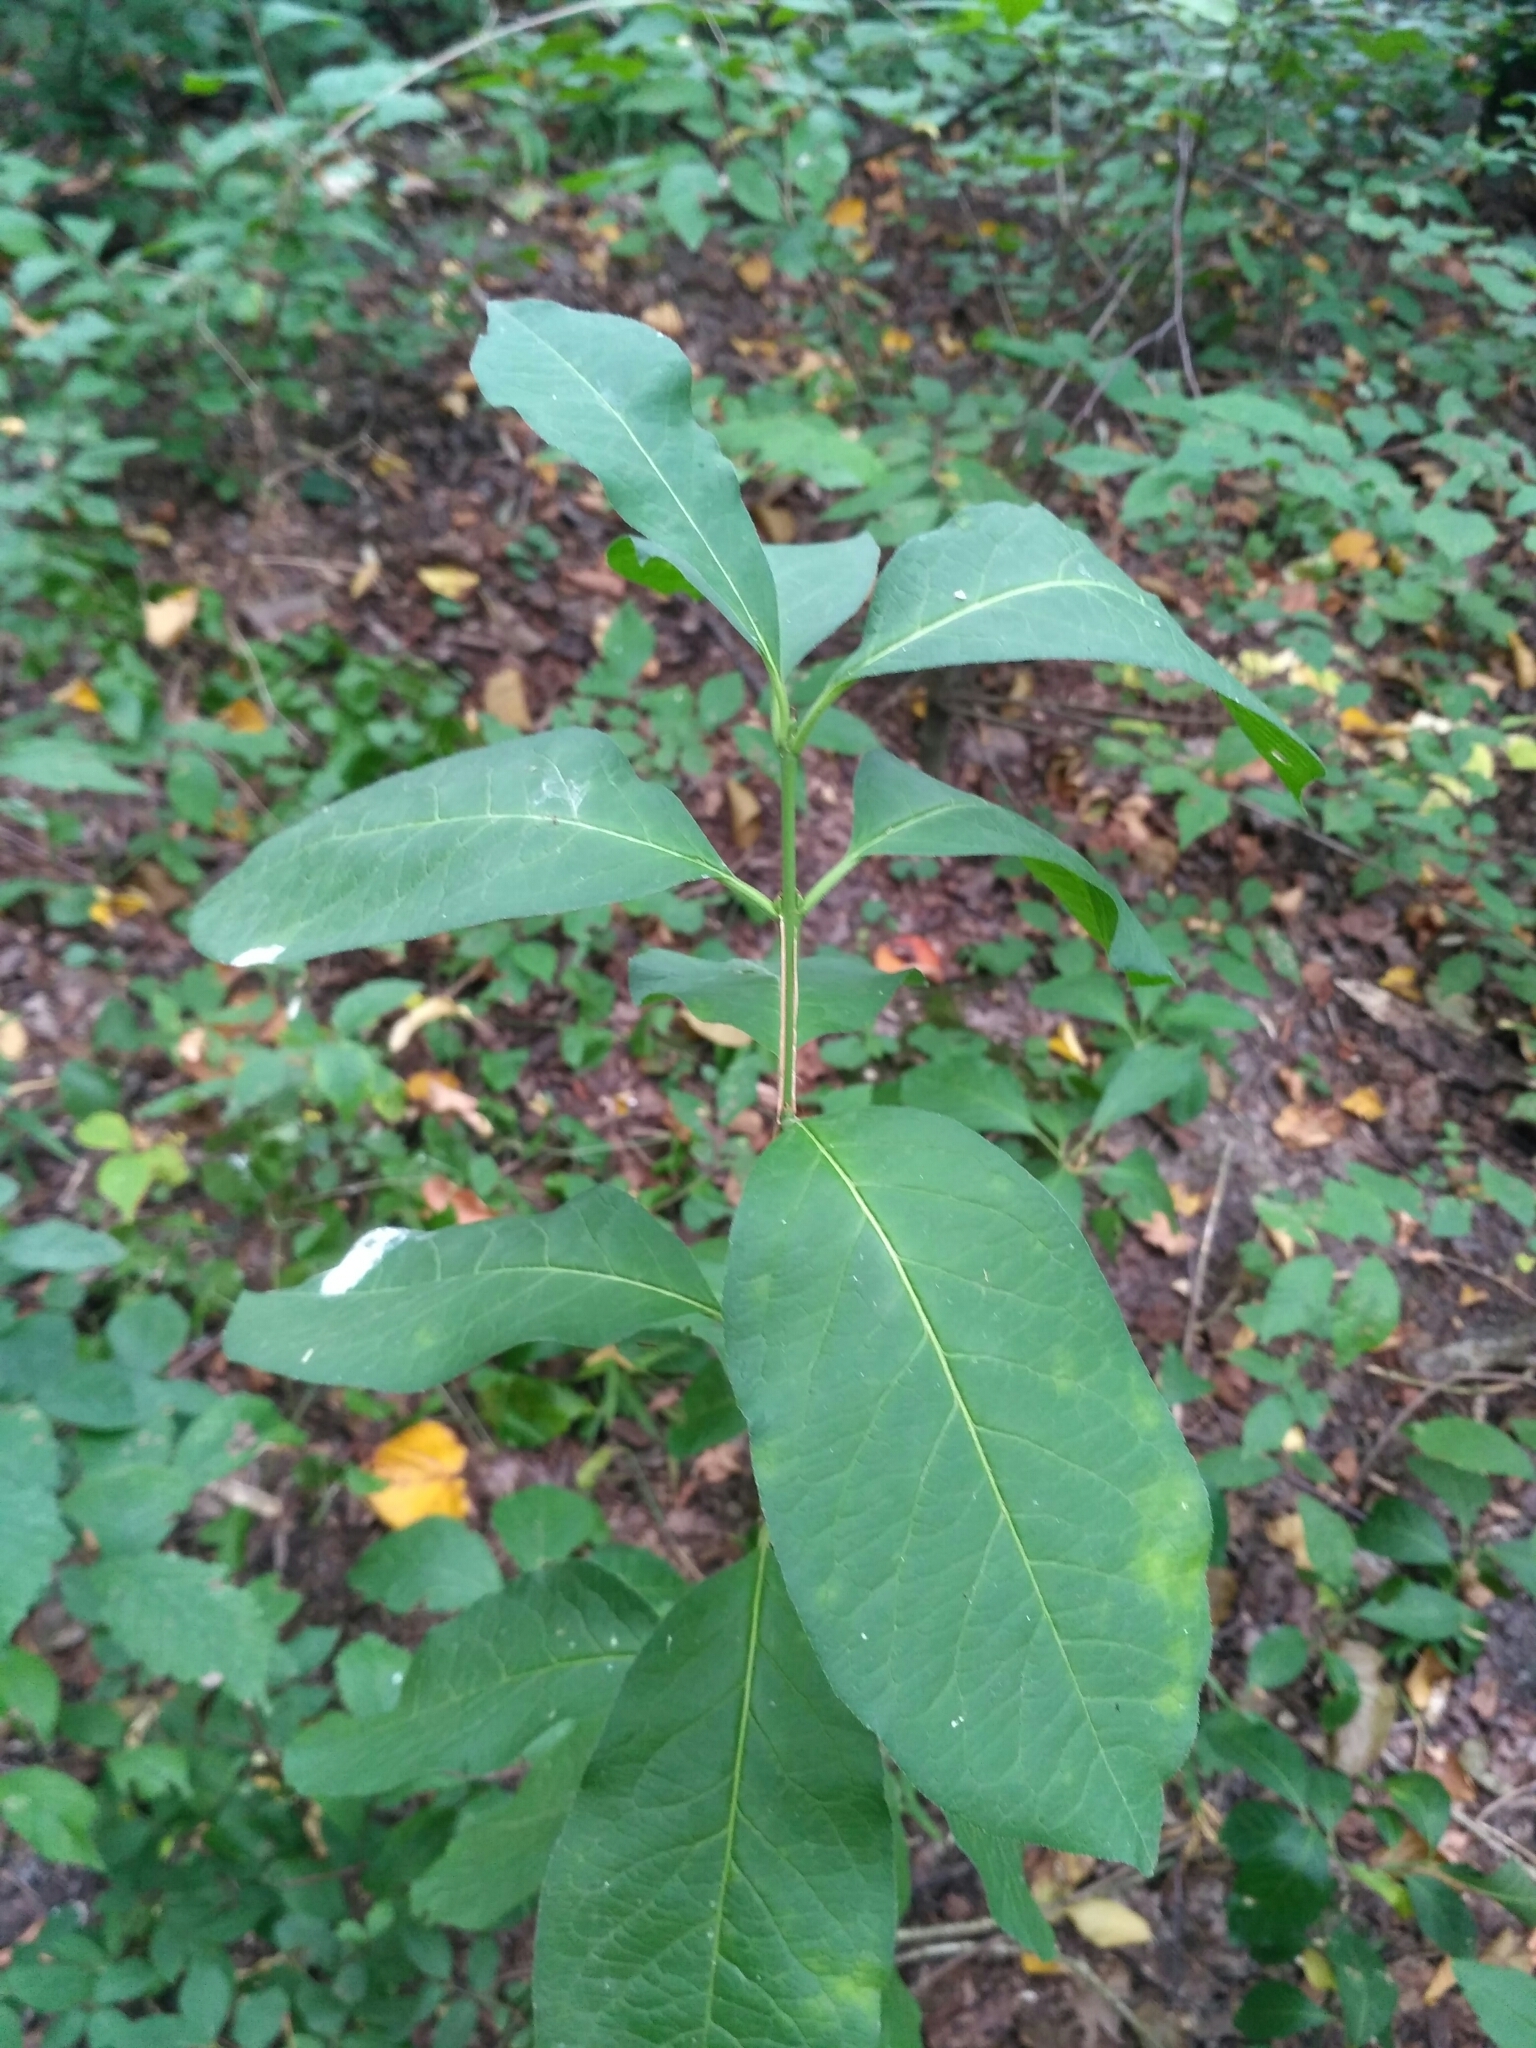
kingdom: Plantae
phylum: Tracheophyta
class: Magnoliopsida
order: Celastrales
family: Celastraceae
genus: Euonymus
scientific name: Euonymus europaeus
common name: Spindle
